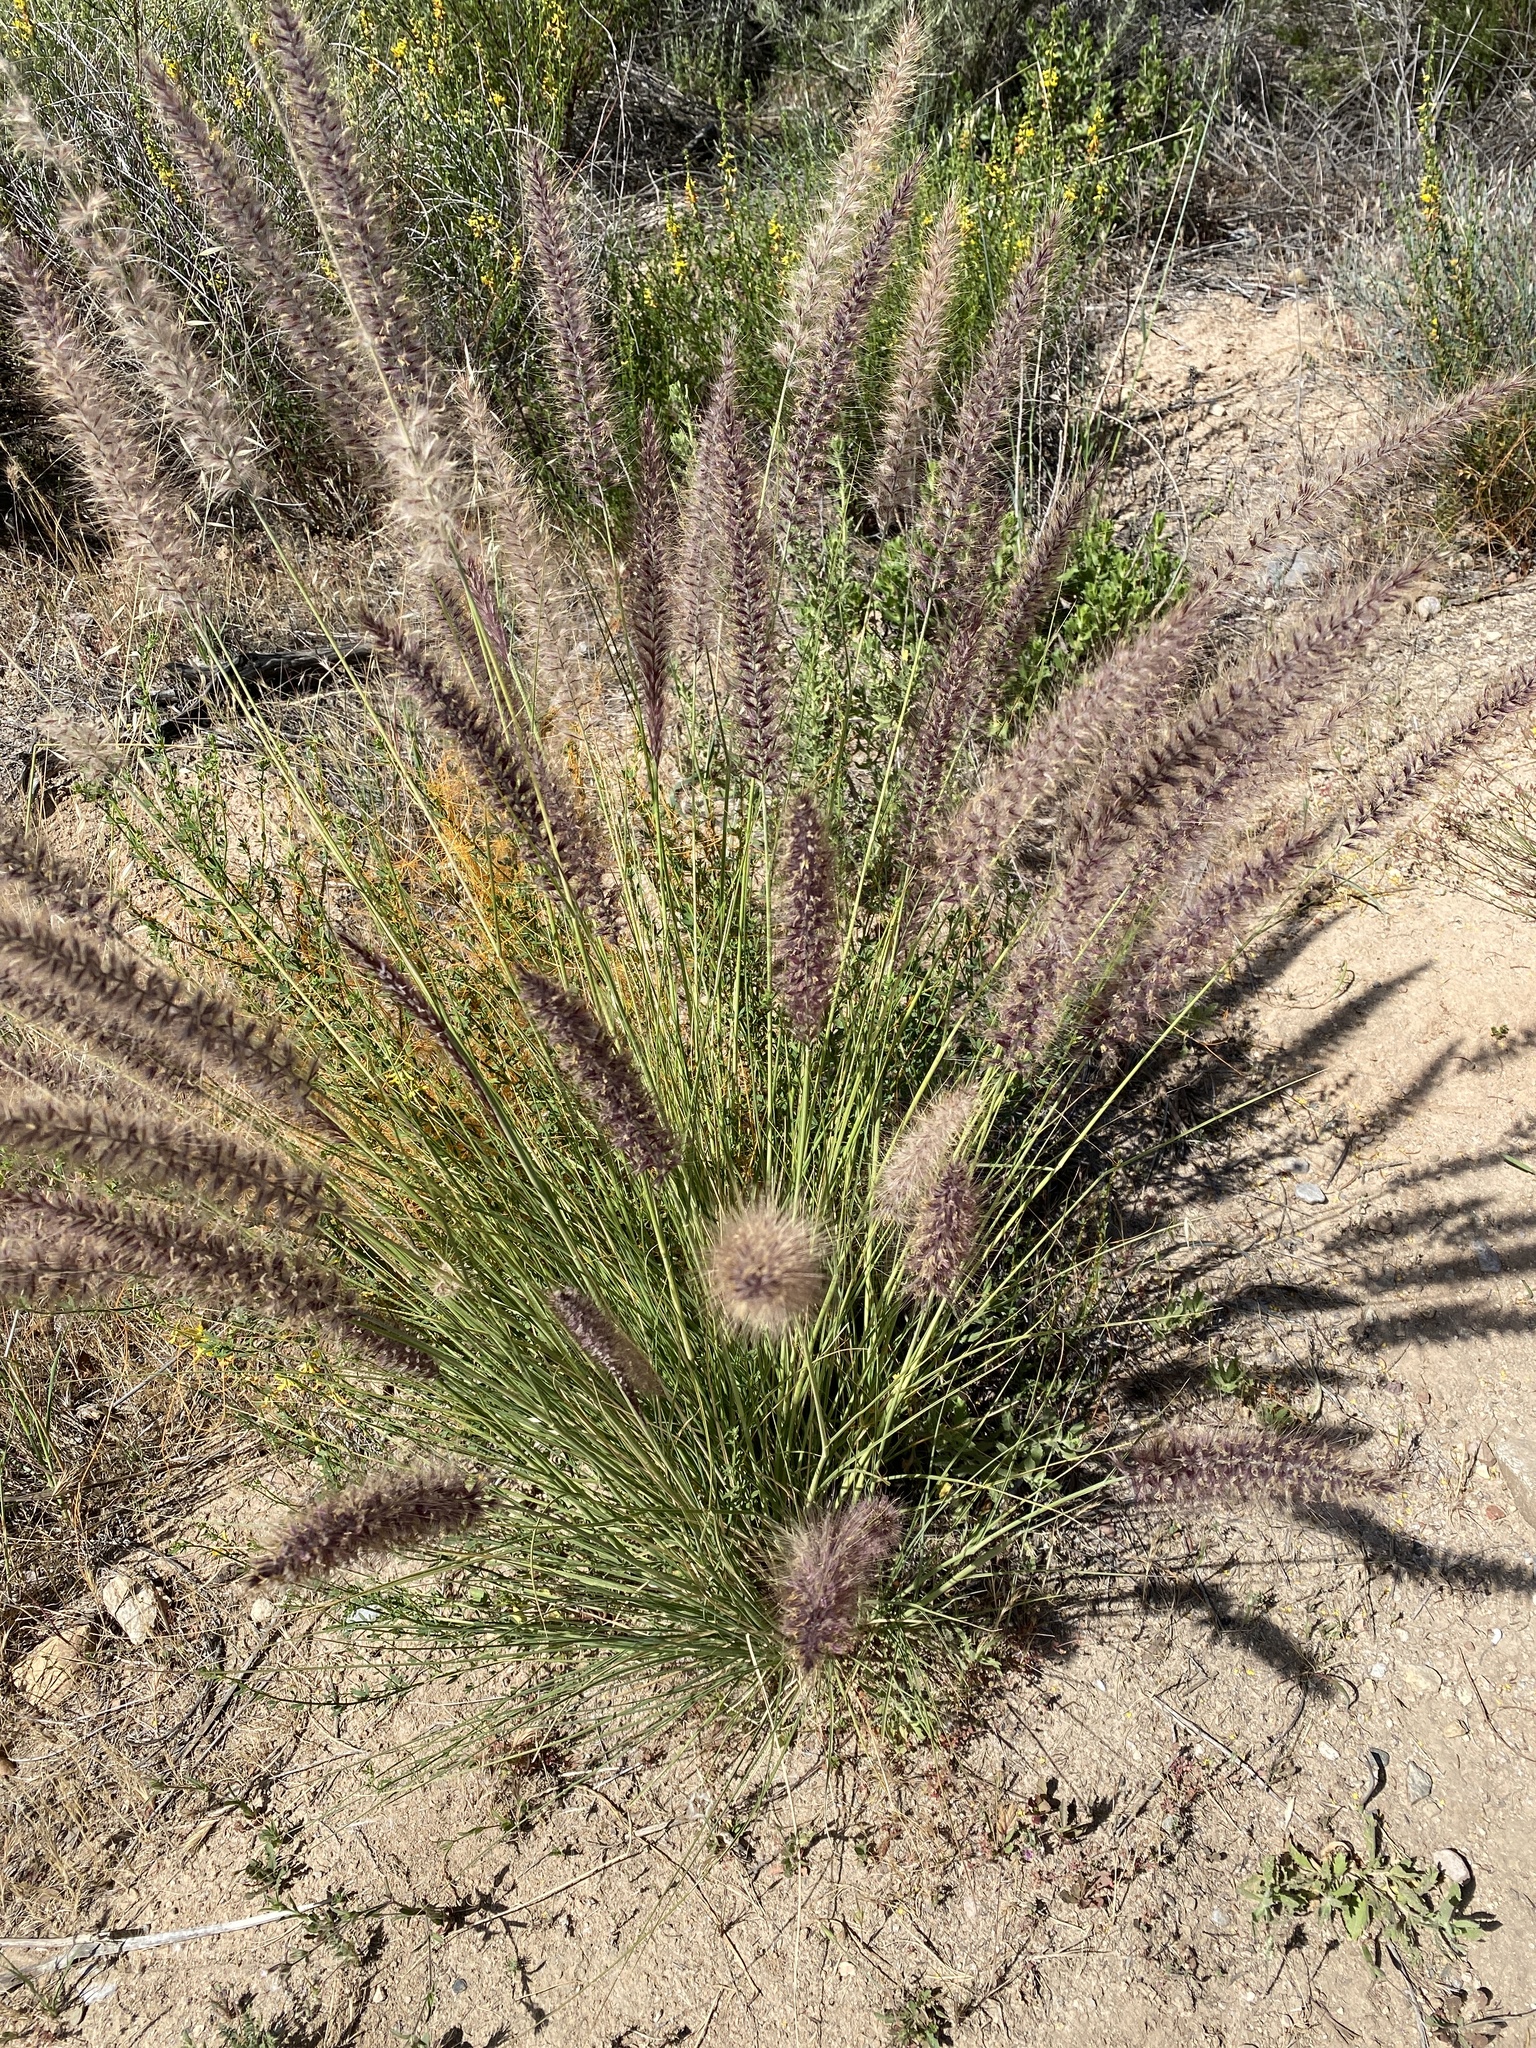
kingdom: Plantae
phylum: Tracheophyta
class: Liliopsida
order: Poales
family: Poaceae
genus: Cenchrus
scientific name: Cenchrus setaceus
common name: Crimson fountaingrass
